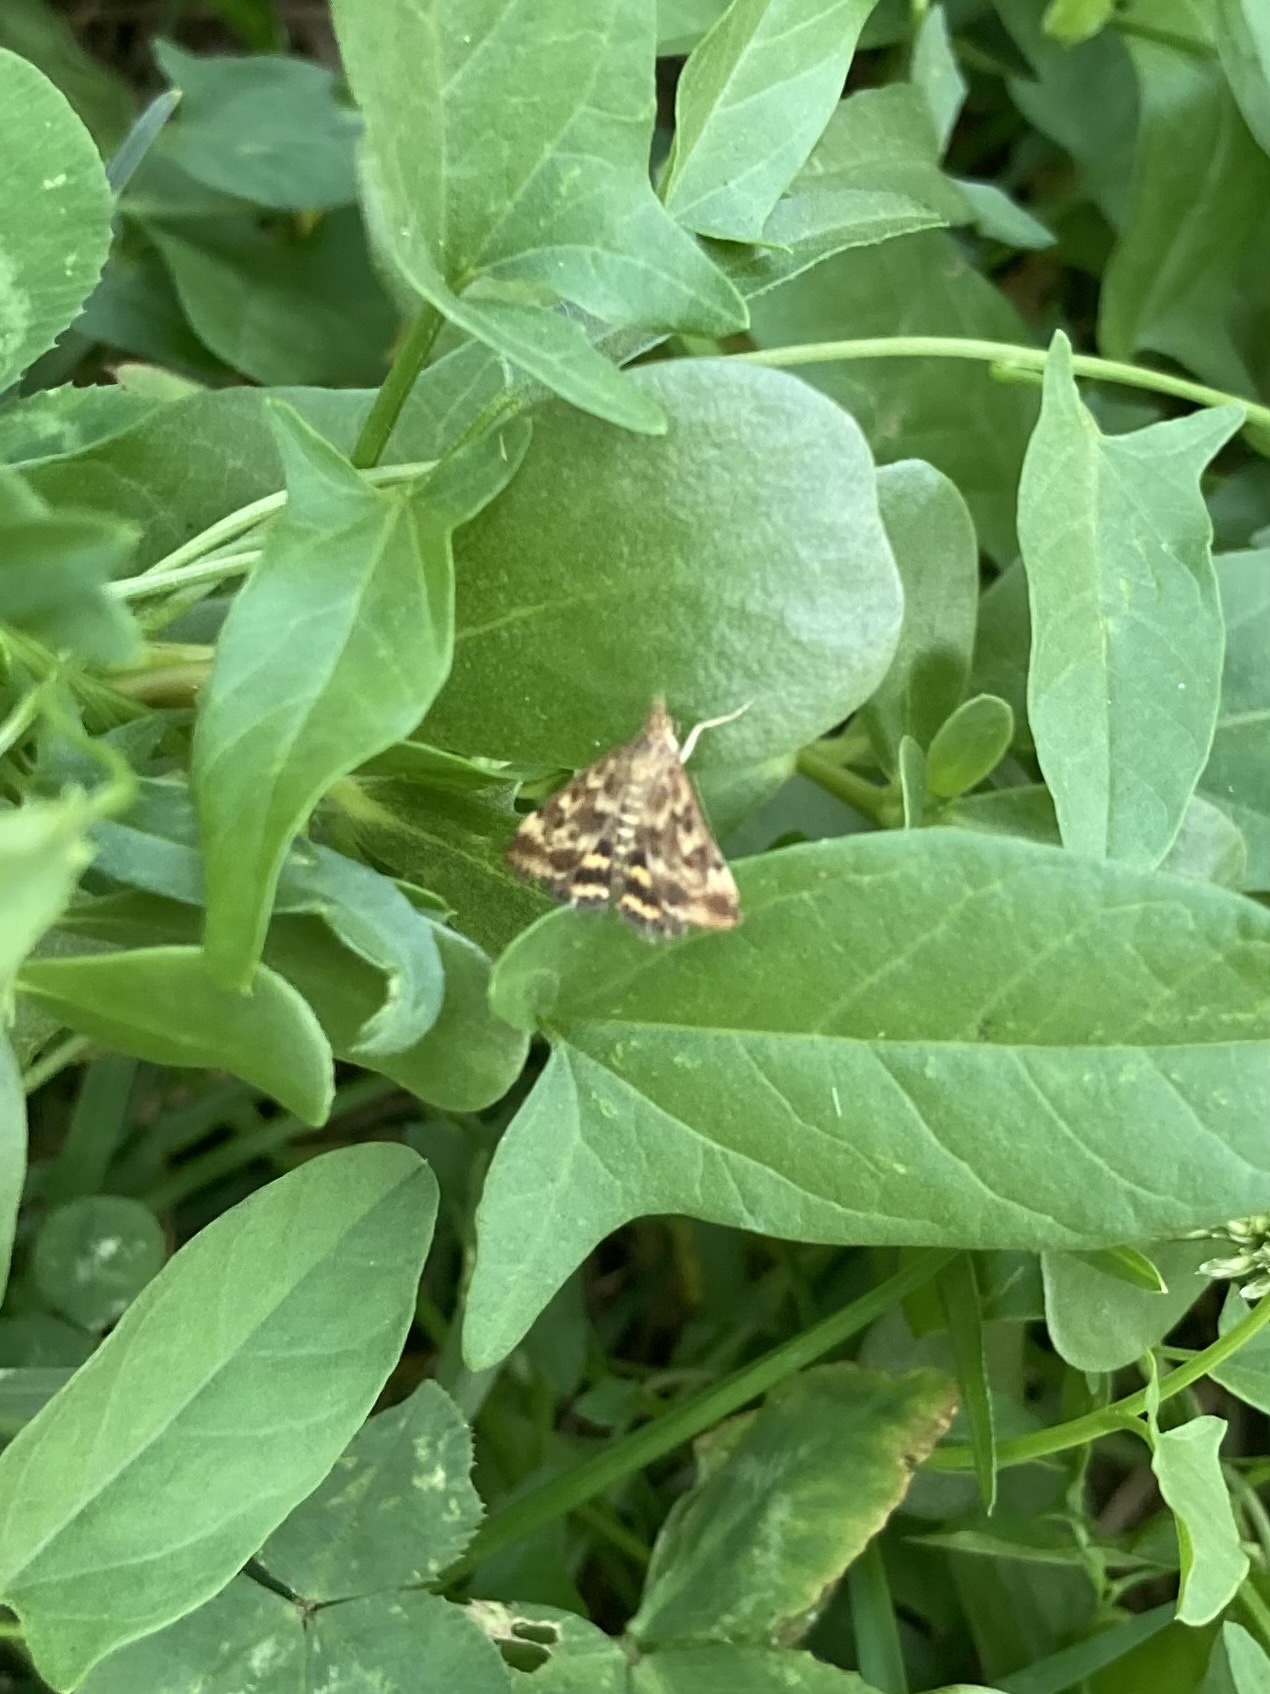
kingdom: Animalia
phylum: Arthropoda
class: Insecta
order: Lepidoptera
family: Crambidae
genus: Pyrausta
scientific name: Pyrausta despicata
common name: Straw-barred pearl
